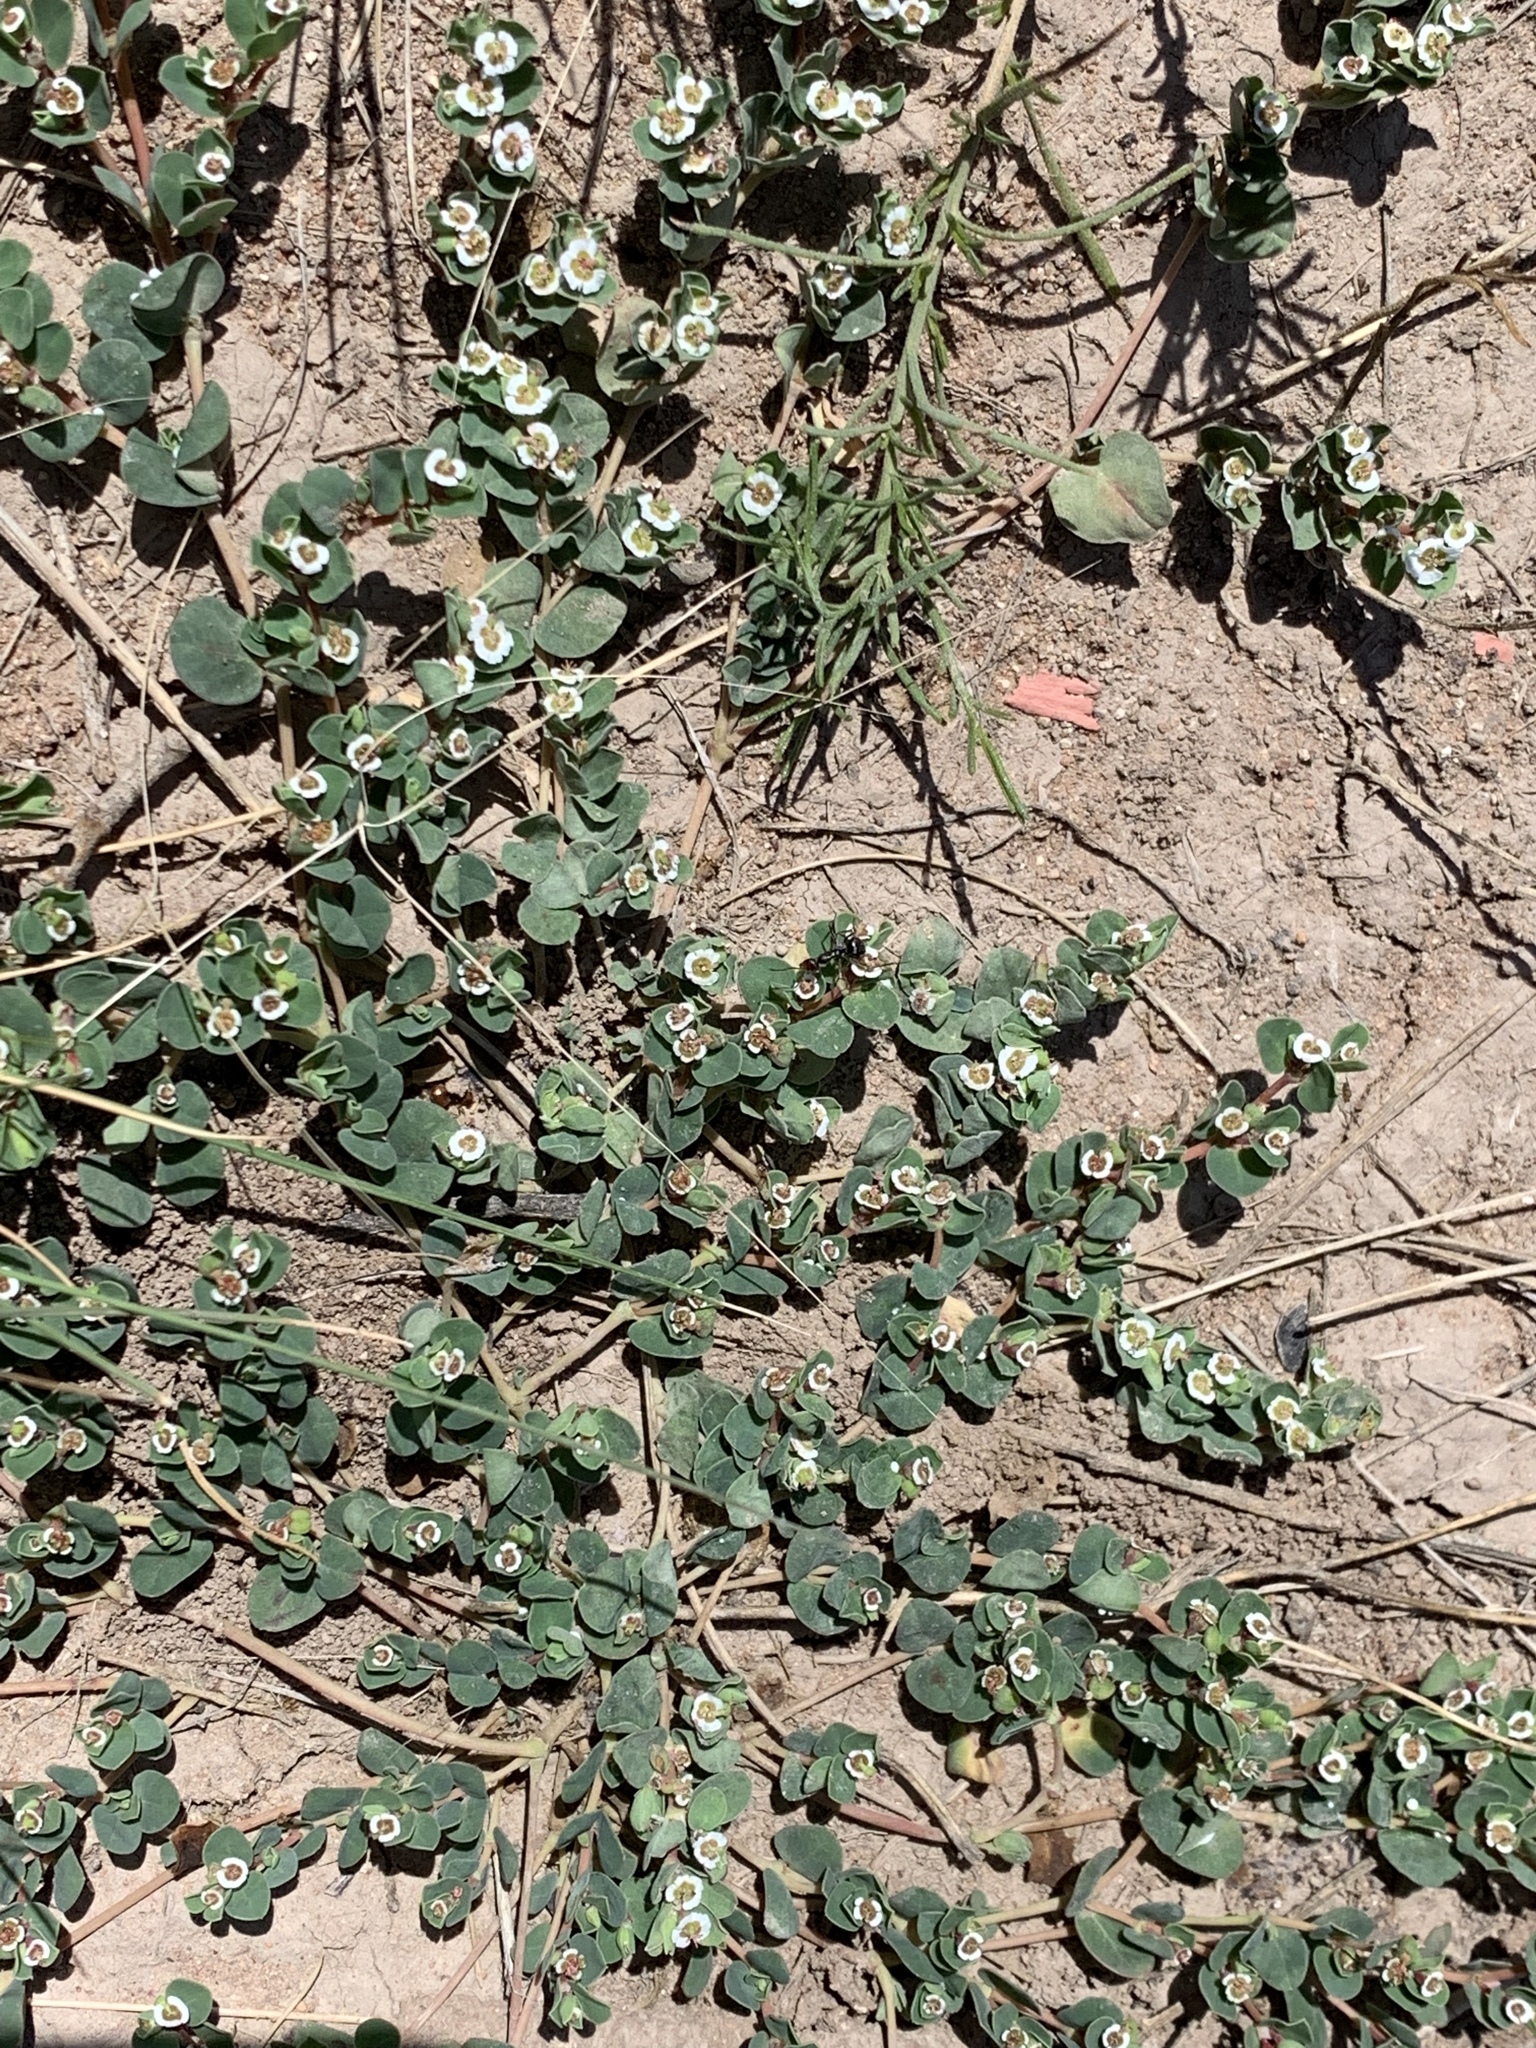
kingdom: Plantae
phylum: Tracheophyta
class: Magnoliopsida
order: Malpighiales
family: Euphorbiaceae
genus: Euphorbia
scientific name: Euphorbia albomarginata
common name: Whitemargin sandmat
